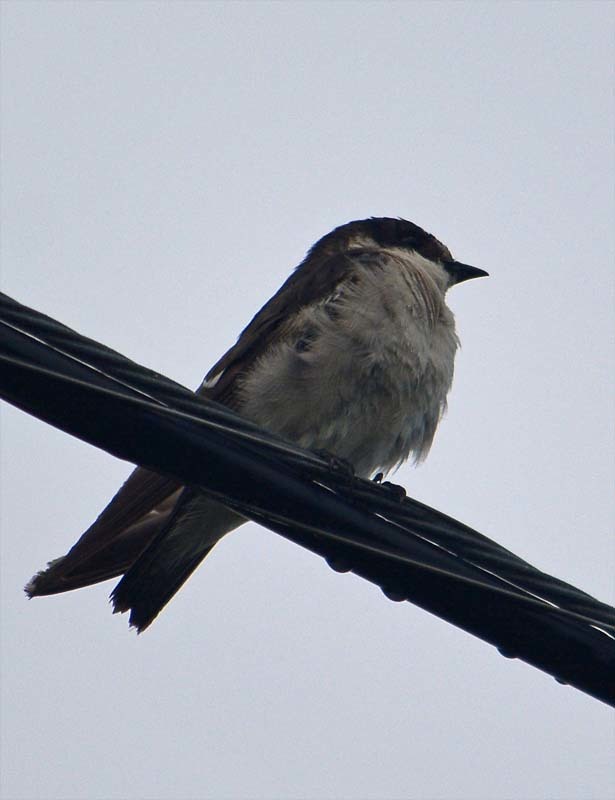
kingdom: Animalia
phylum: Chordata
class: Aves
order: Passeriformes
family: Hirundinidae
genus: Tachycineta
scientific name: Tachycineta albilinea
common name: Mangrove swallow
